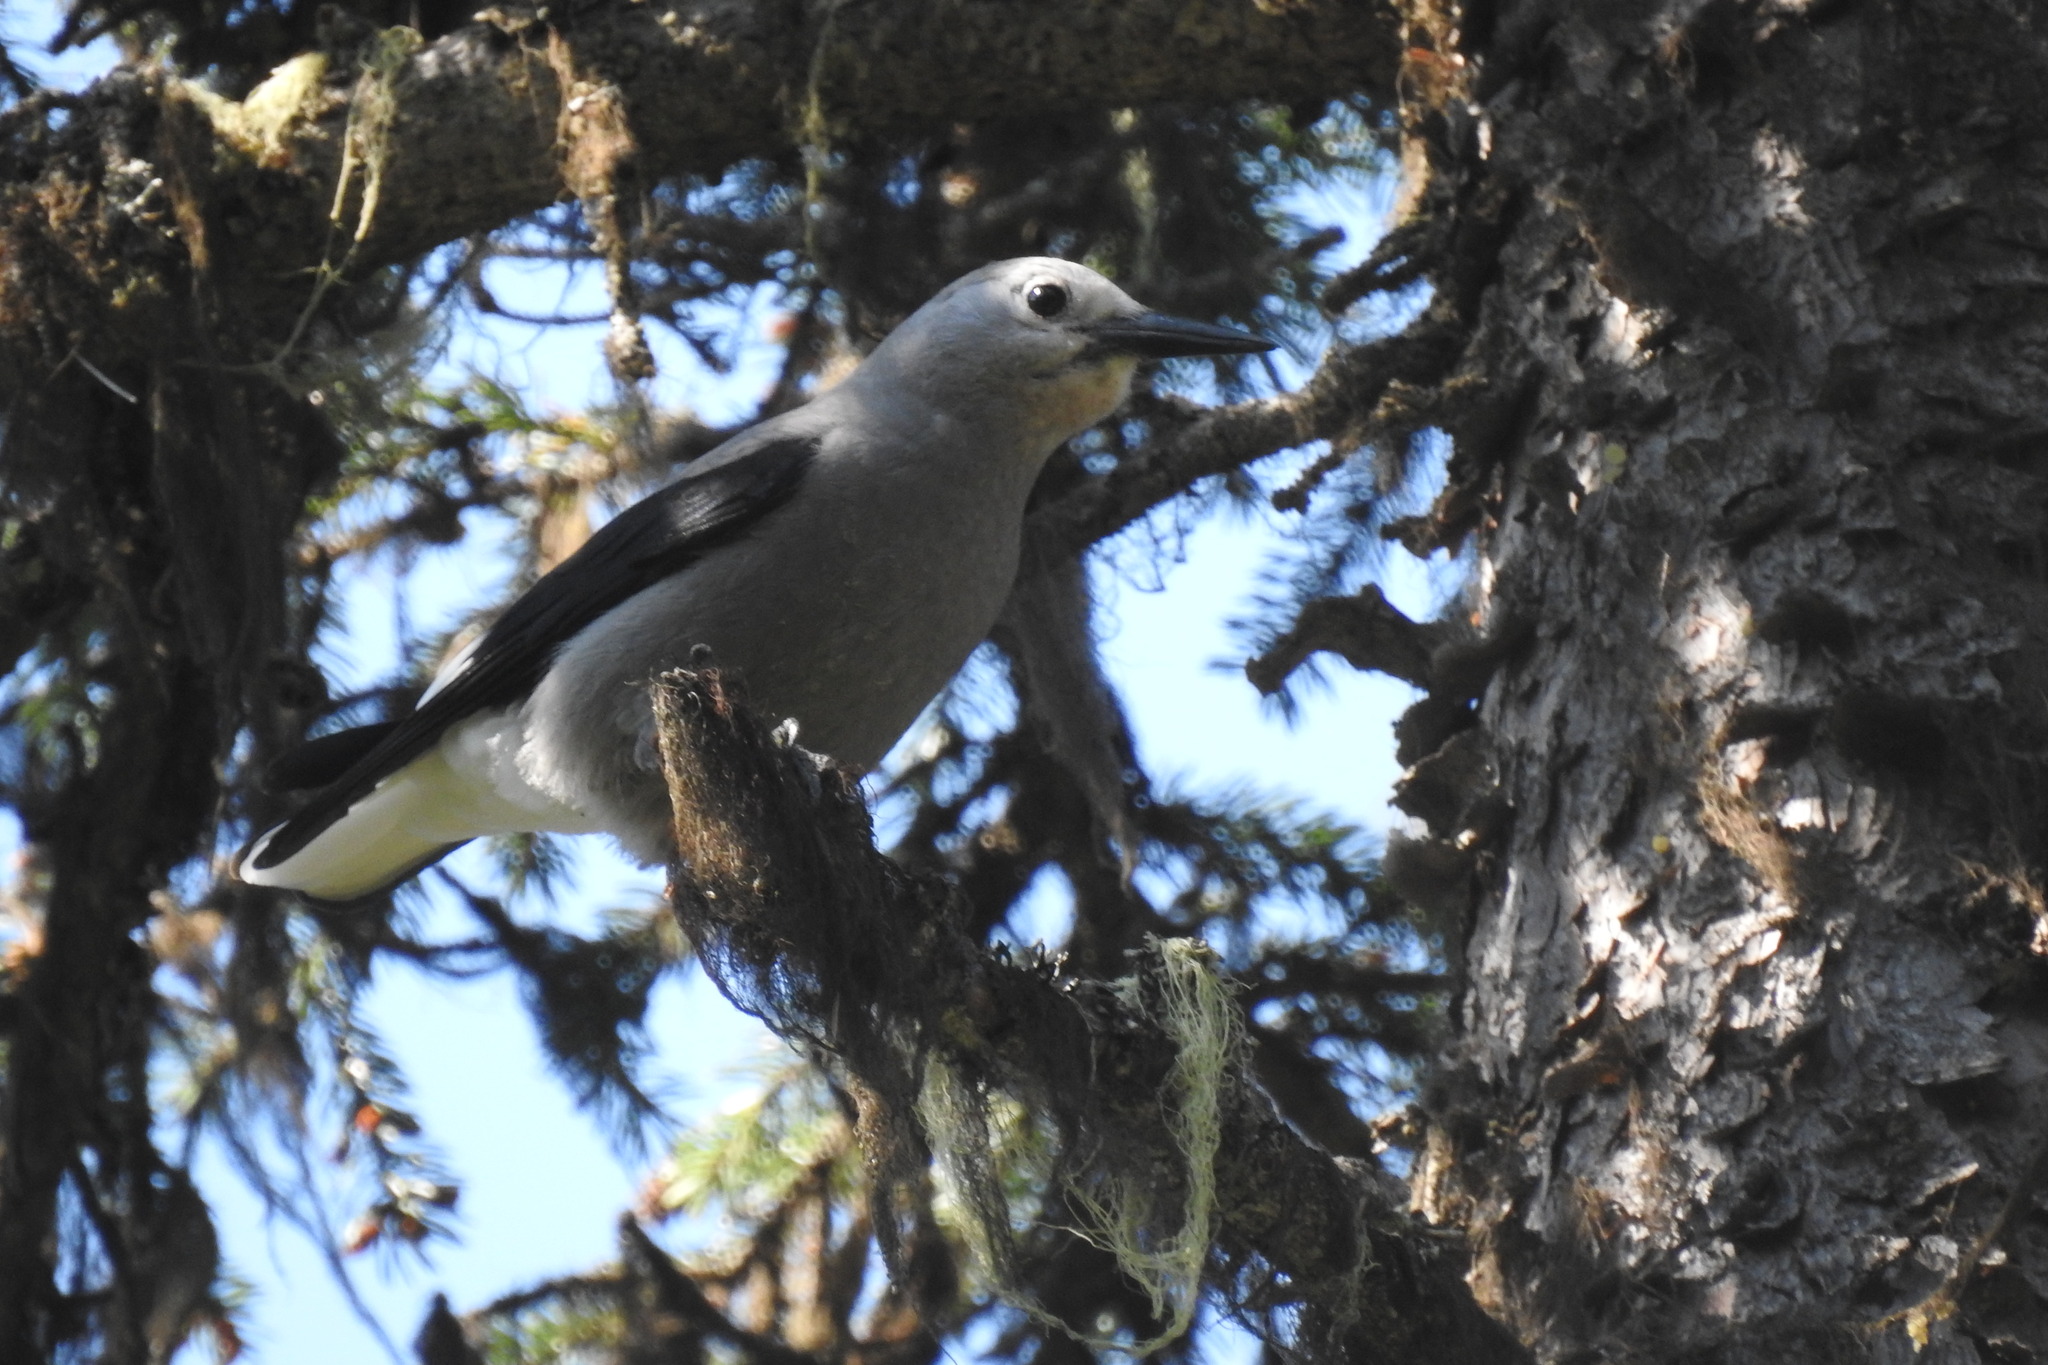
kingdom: Animalia
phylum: Chordata
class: Aves
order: Passeriformes
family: Corvidae
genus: Nucifraga
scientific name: Nucifraga columbiana
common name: Clark's nutcracker
